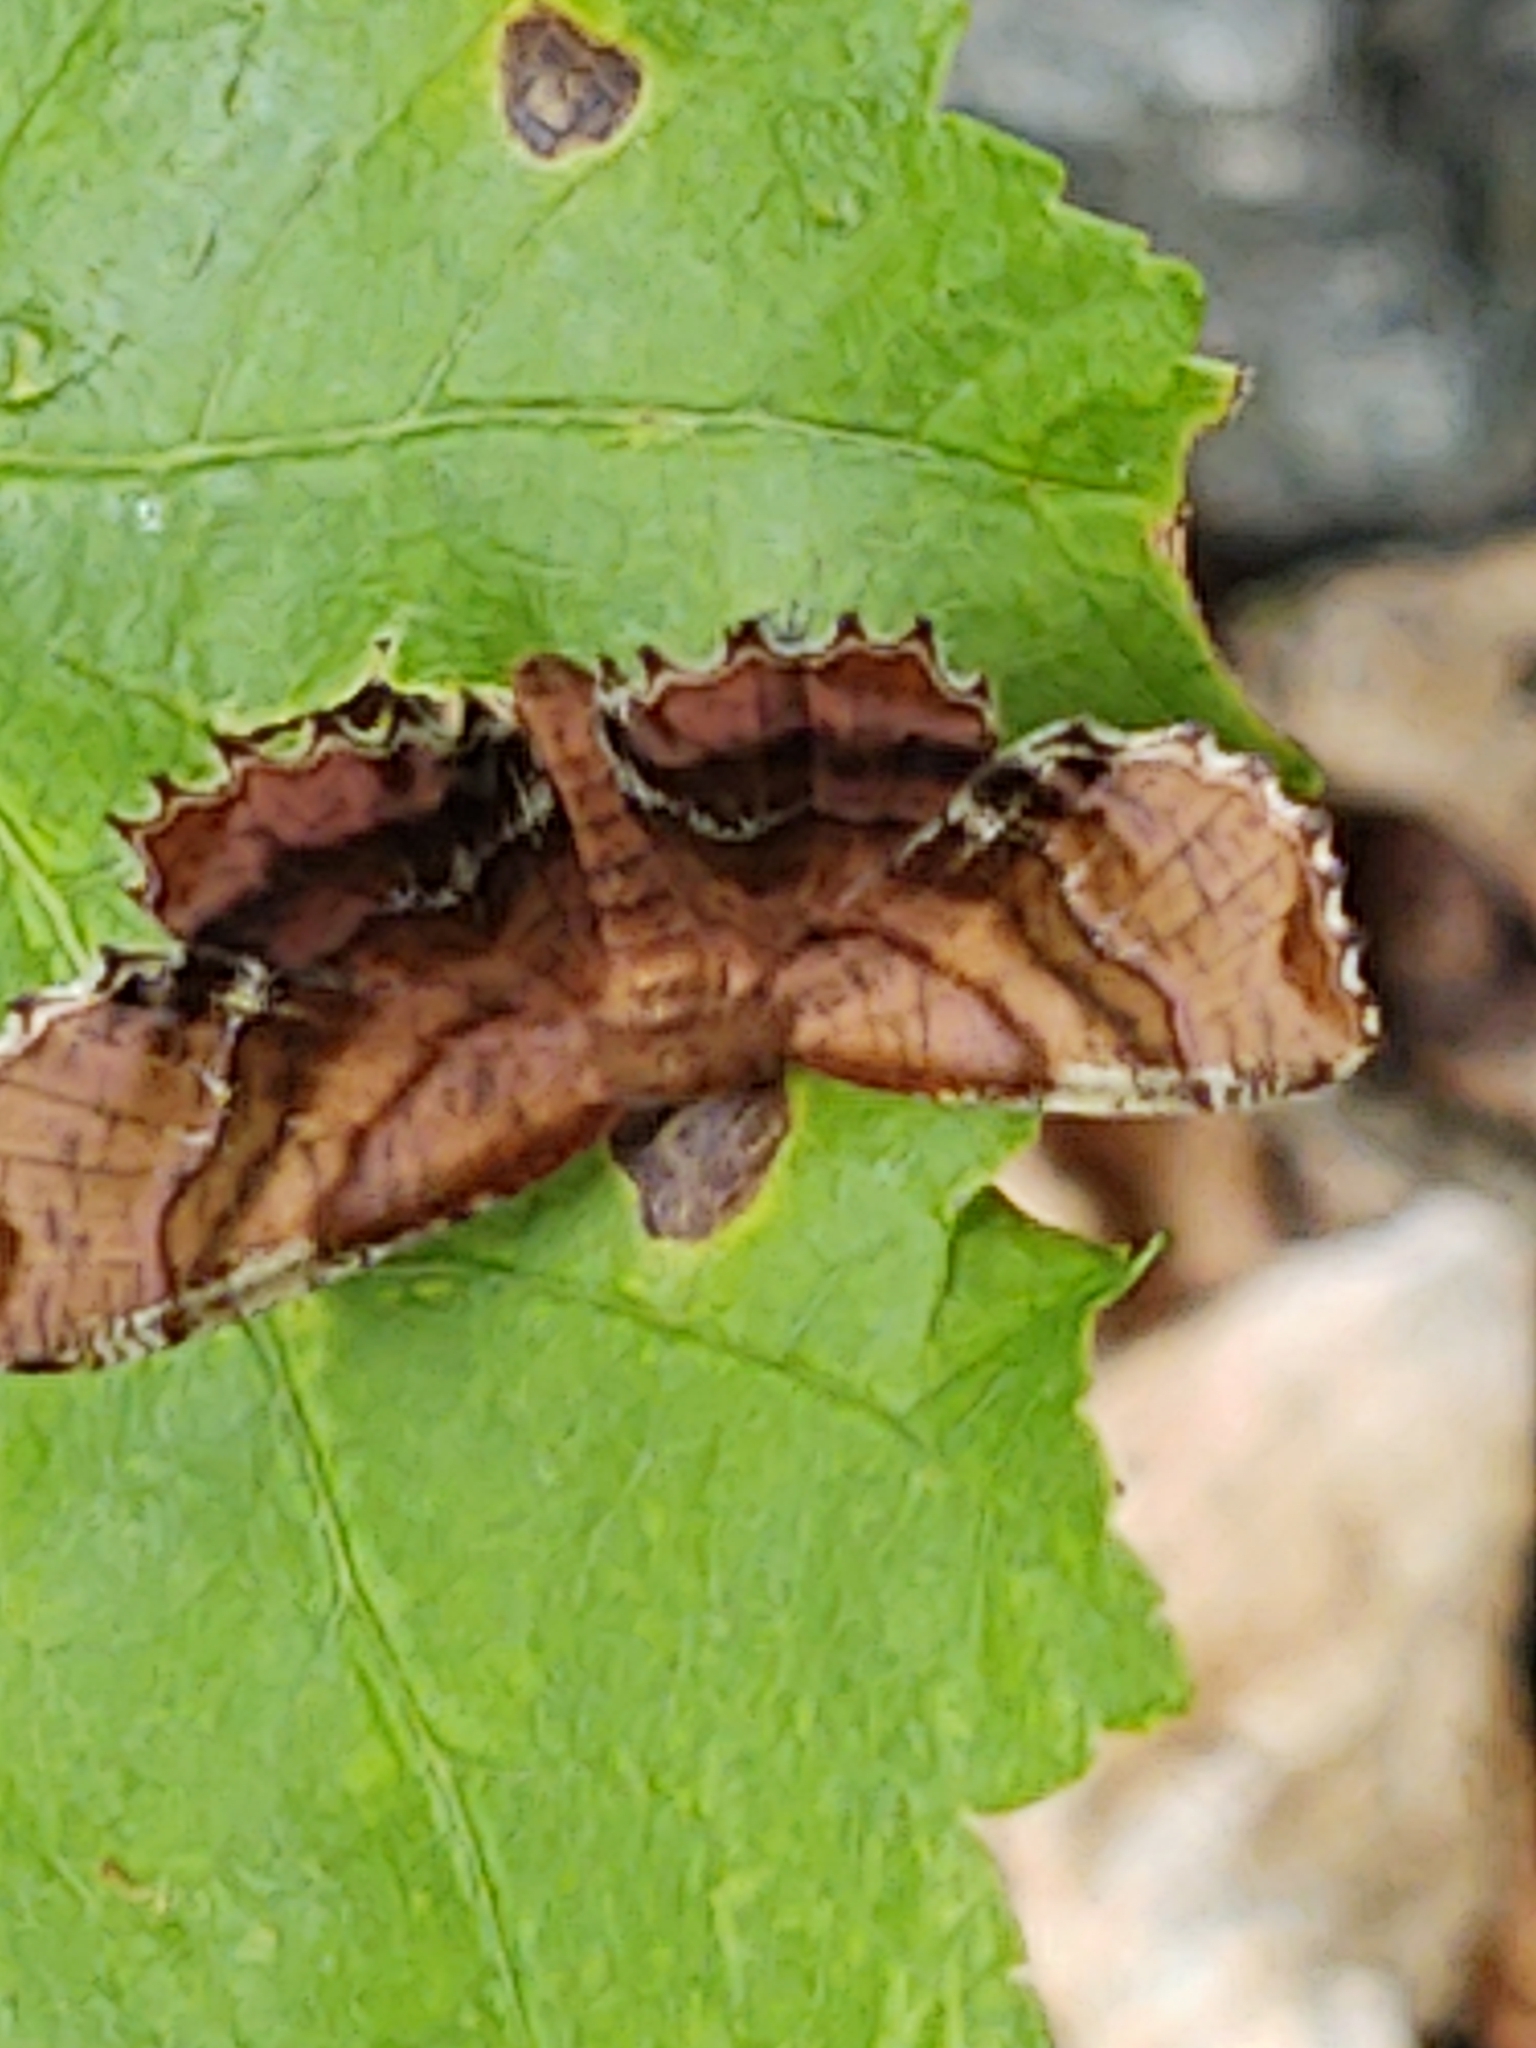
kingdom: Animalia
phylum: Arthropoda
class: Insecta
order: Lepidoptera
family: Geometridae
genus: Cepphis
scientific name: Cepphis armataria
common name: Scallop moth
